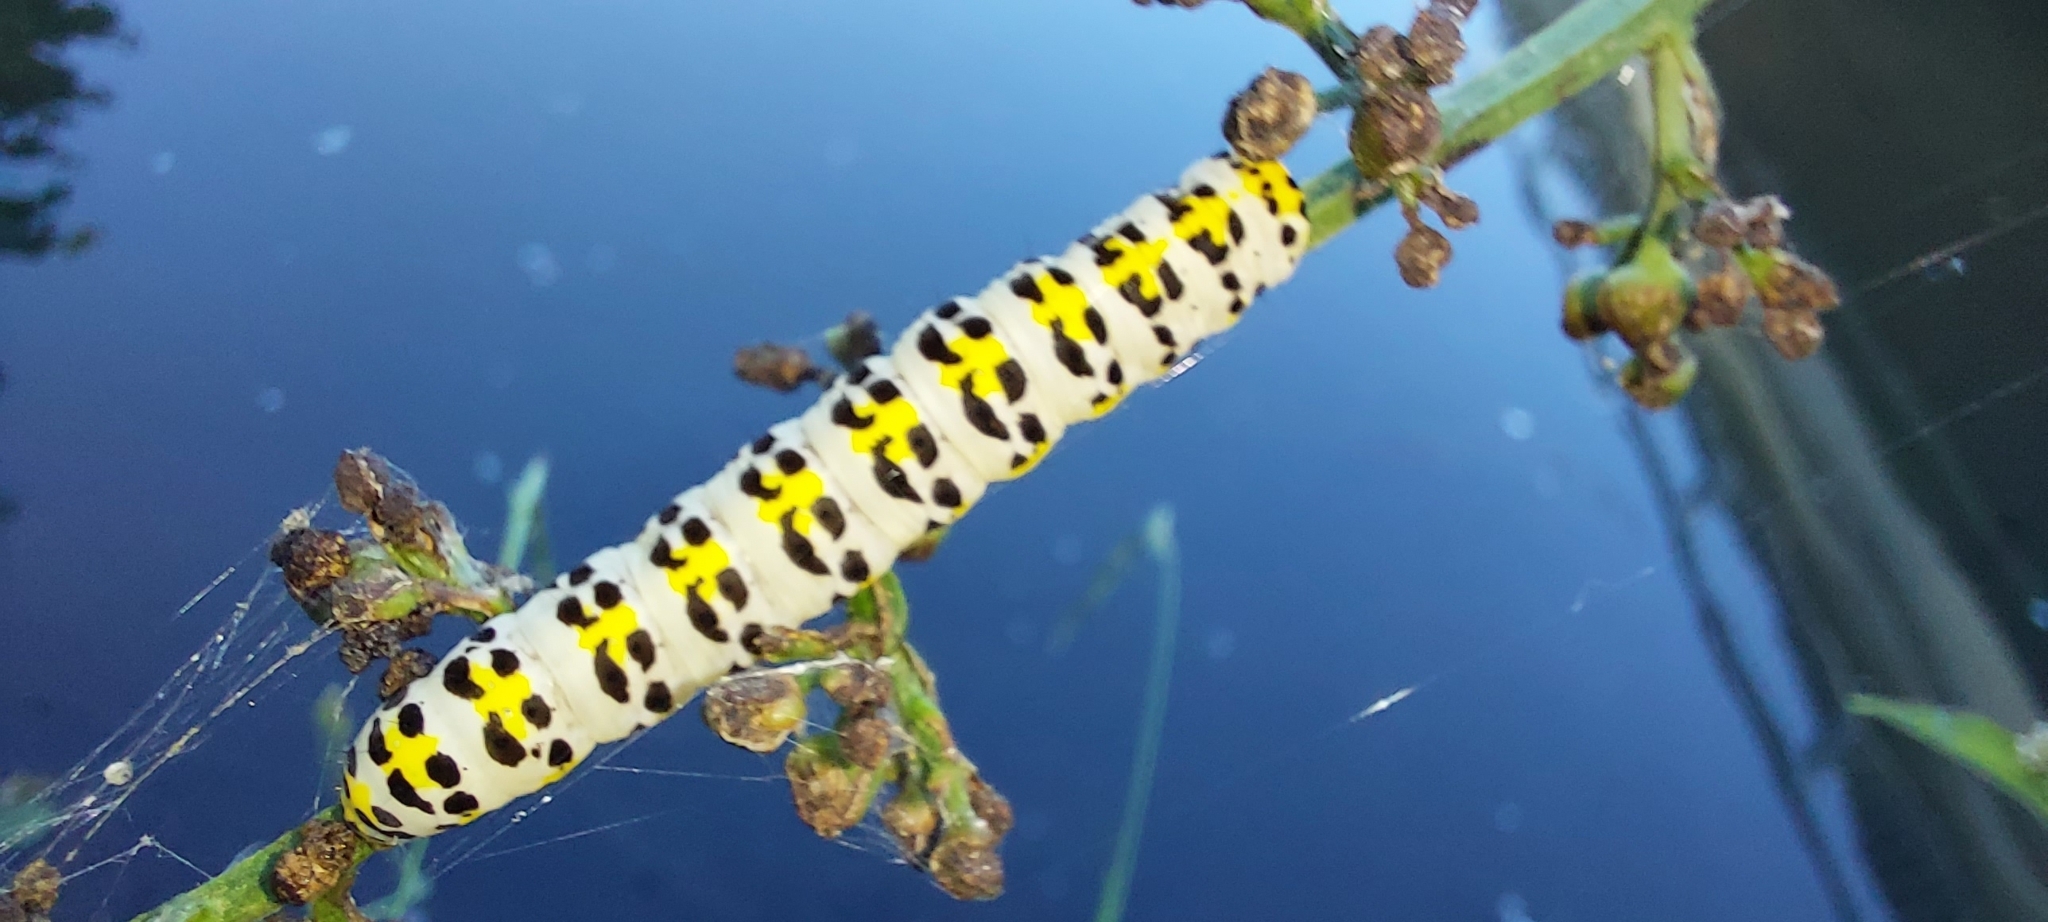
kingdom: Animalia
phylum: Arthropoda
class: Insecta
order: Lepidoptera
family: Noctuidae
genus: Shargacucullia
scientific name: Shargacucullia scrophulariae
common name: Water betony
